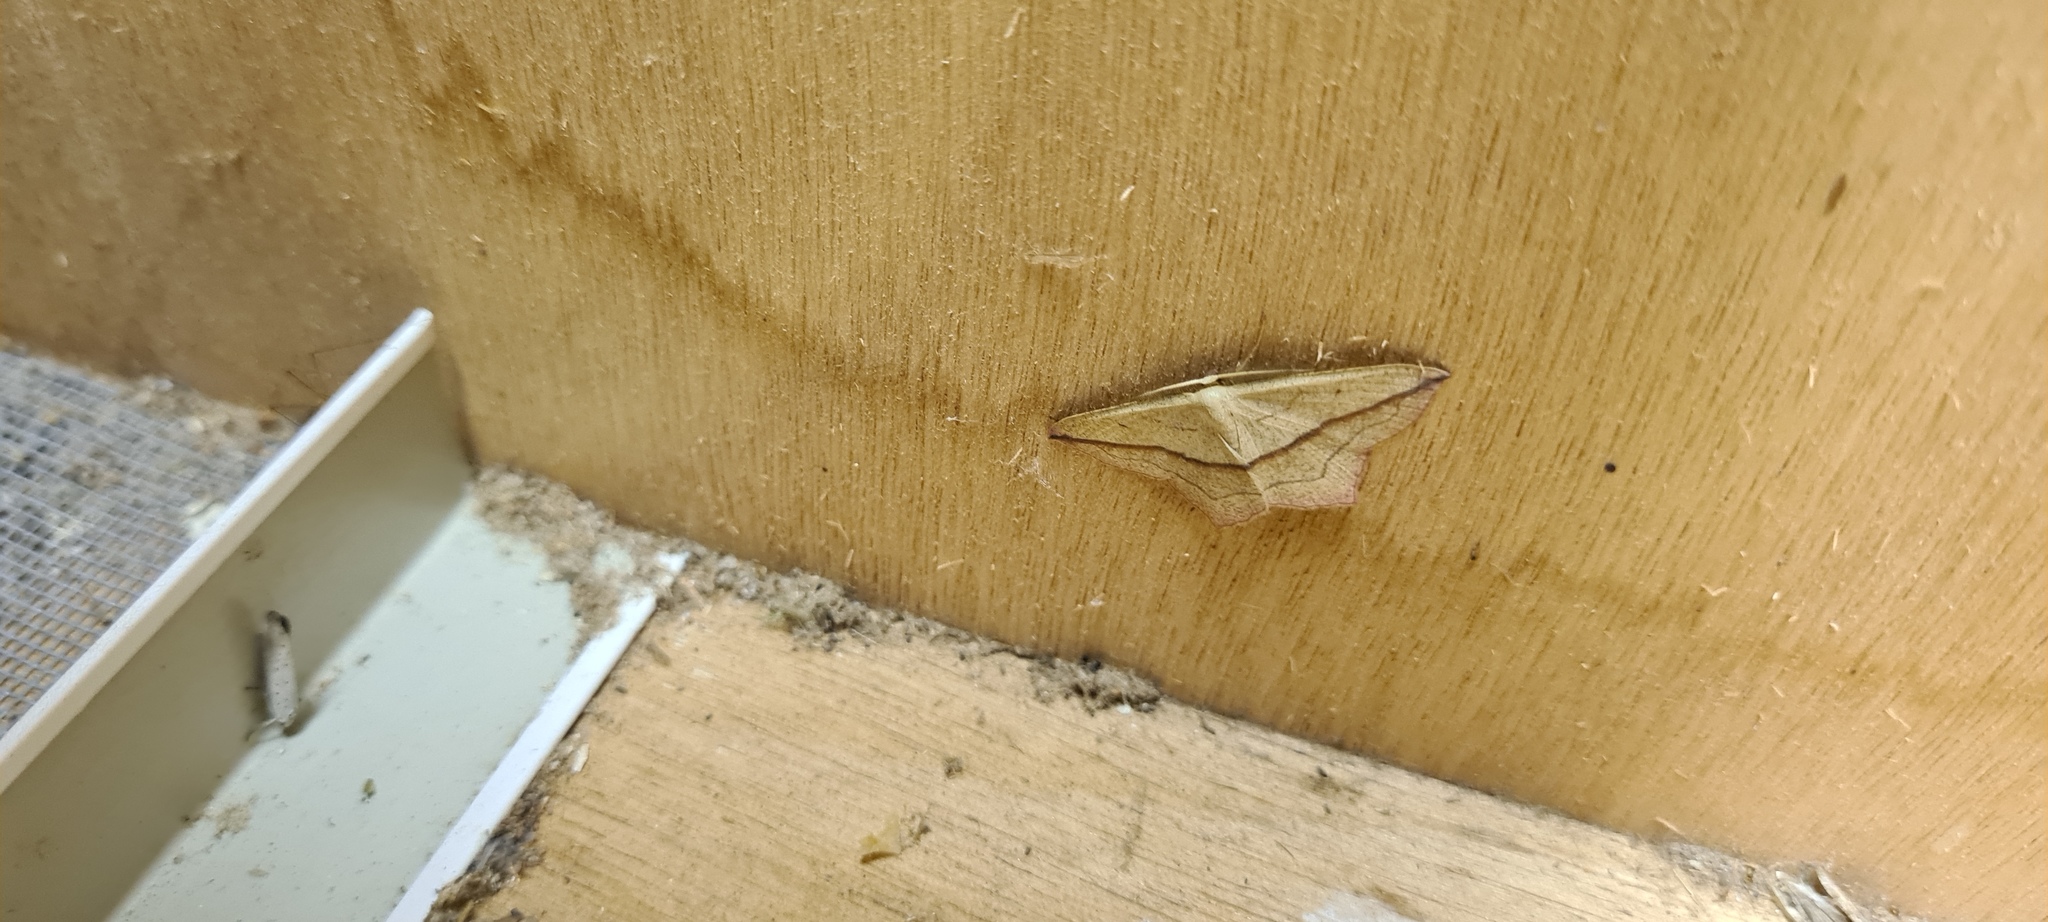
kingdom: Animalia
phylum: Arthropoda
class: Insecta
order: Lepidoptera
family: Geometridae
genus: Timandra
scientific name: Timandra comae
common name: Blood-vein
